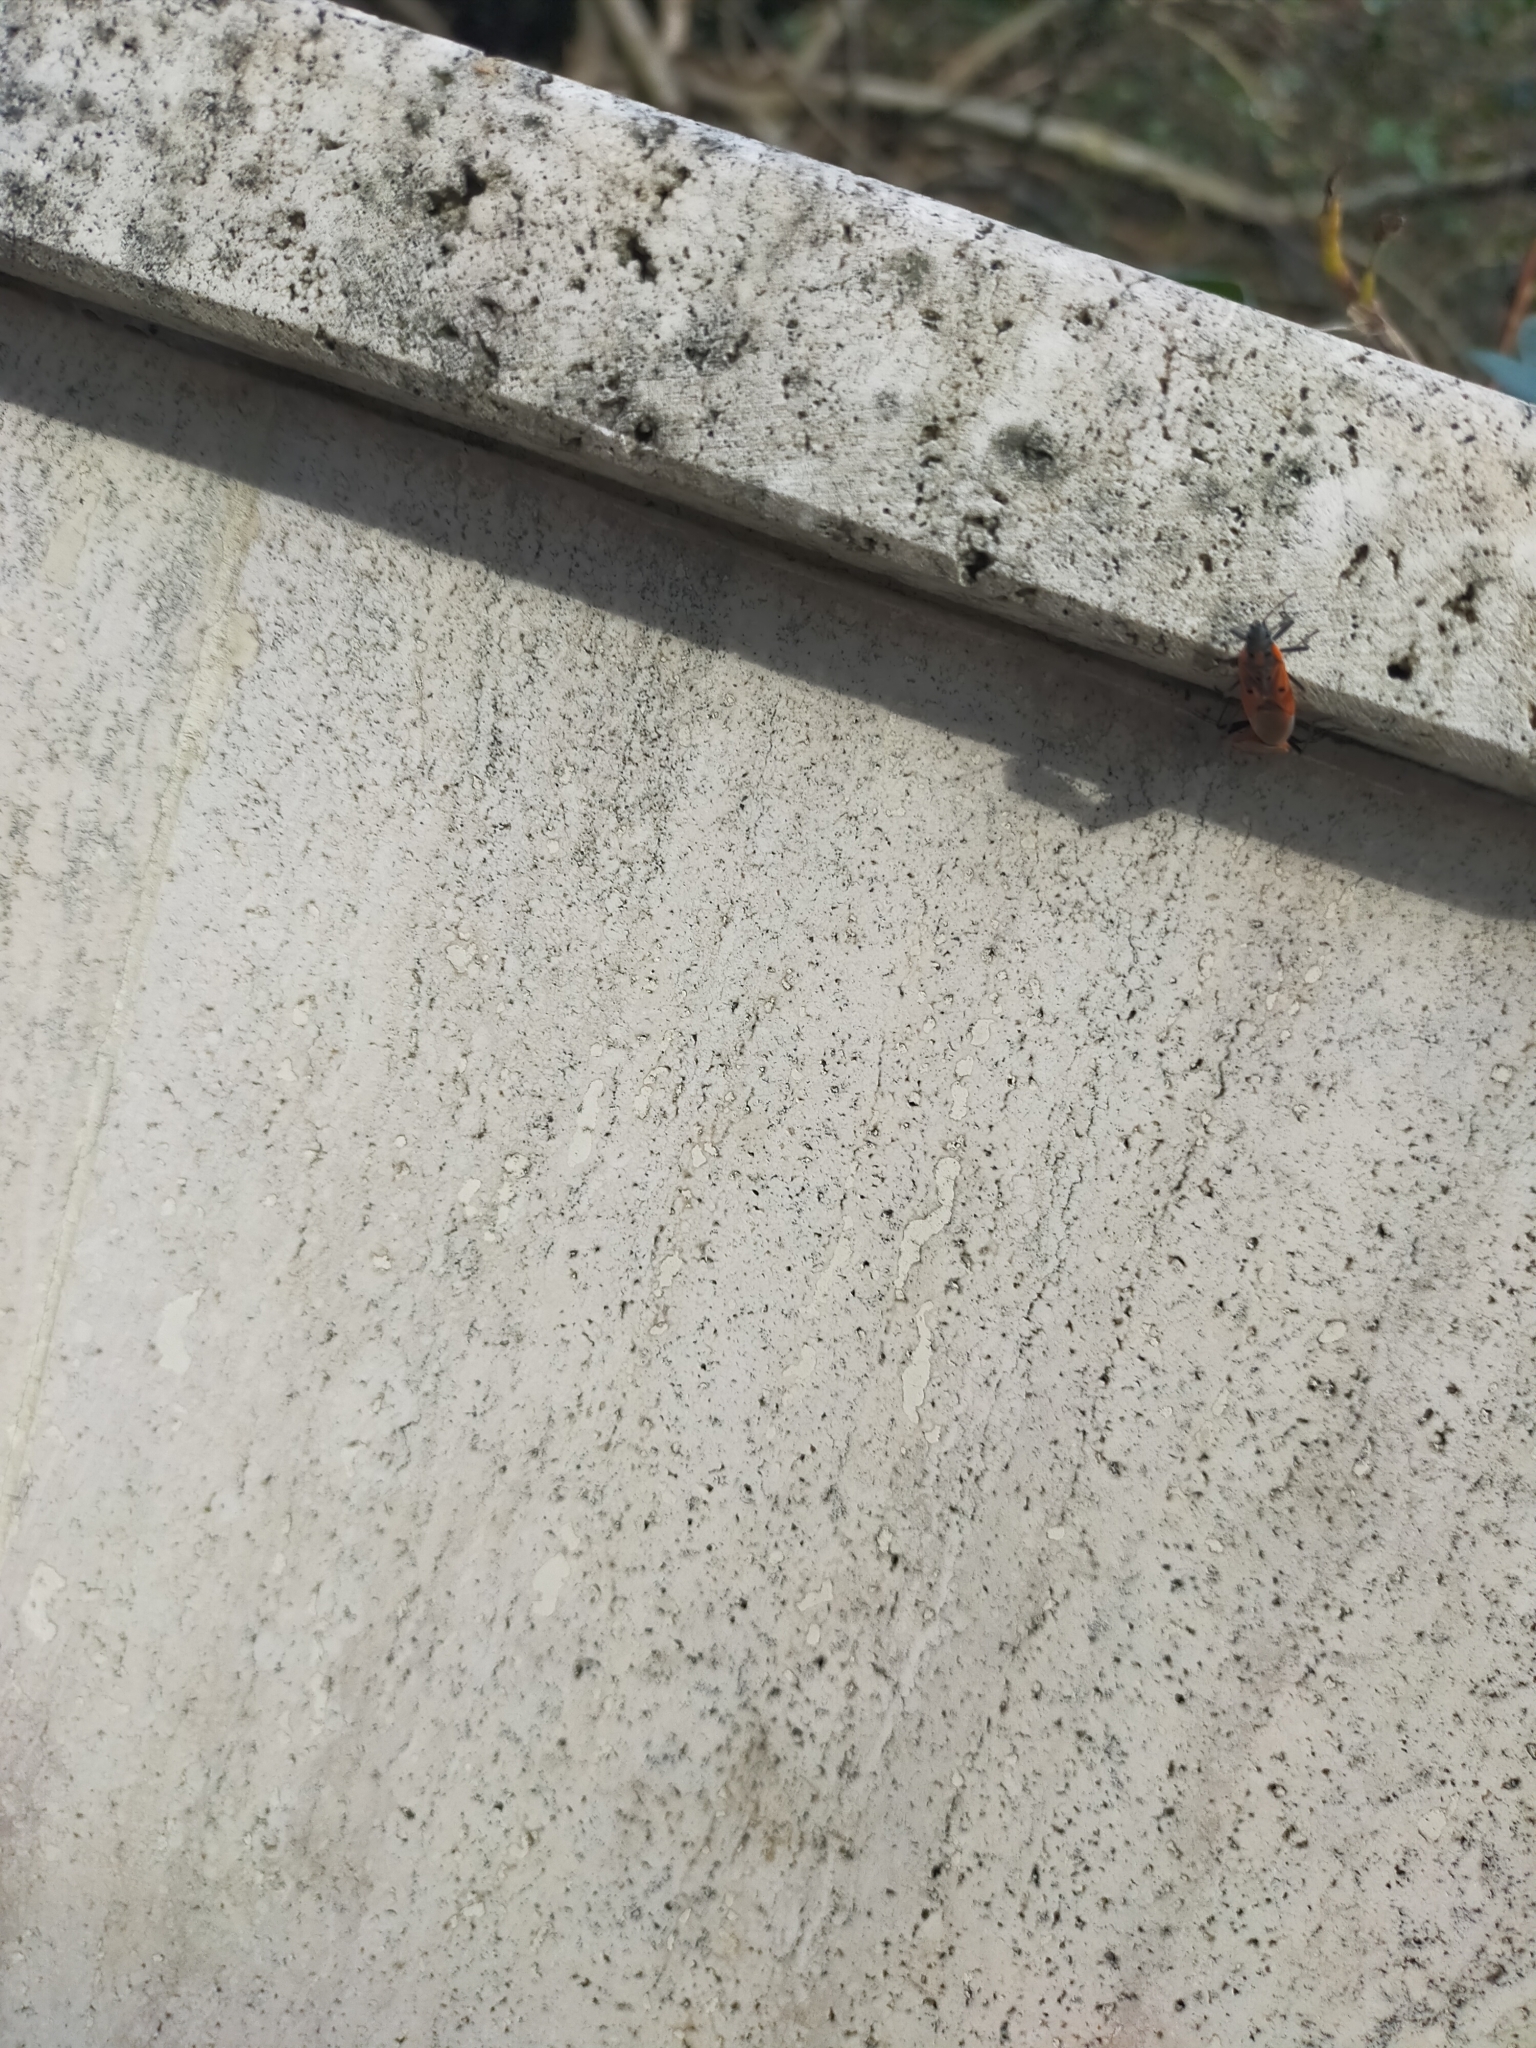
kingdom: Animalia
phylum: Arthropoda
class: Insecta
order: Hemiptera
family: Lygaeidae
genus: Lygaeus
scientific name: Lygaeus creticus
